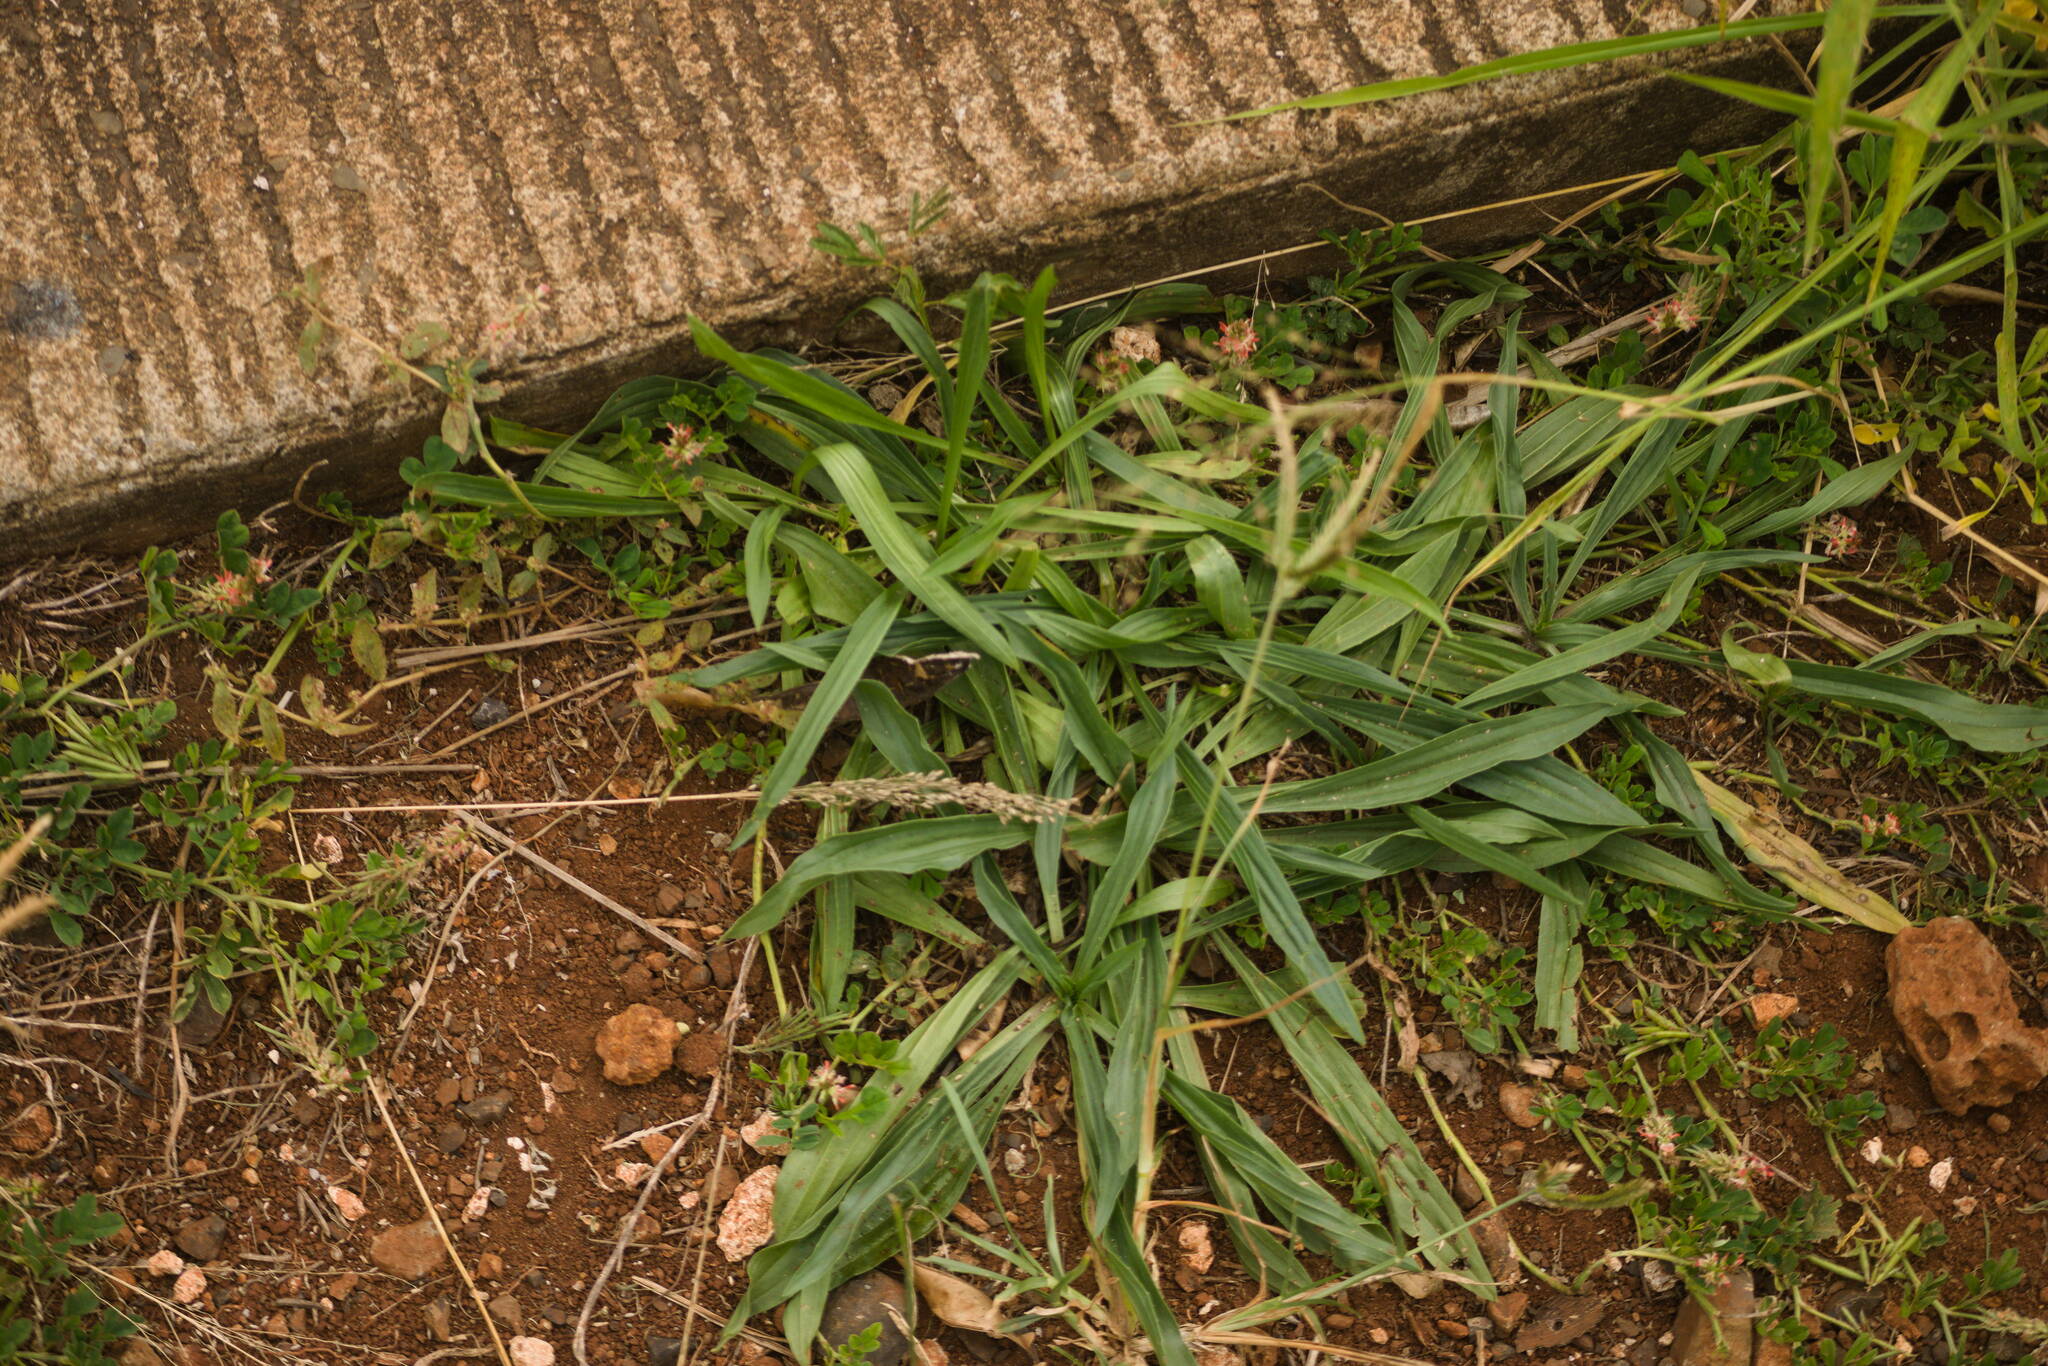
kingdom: Plantae
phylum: Tracheophyta
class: Magnoliopsida
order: Lamiales
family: Plantaginaceae
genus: Plantago
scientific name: Plantago lanceolata
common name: Ribwort plantain
